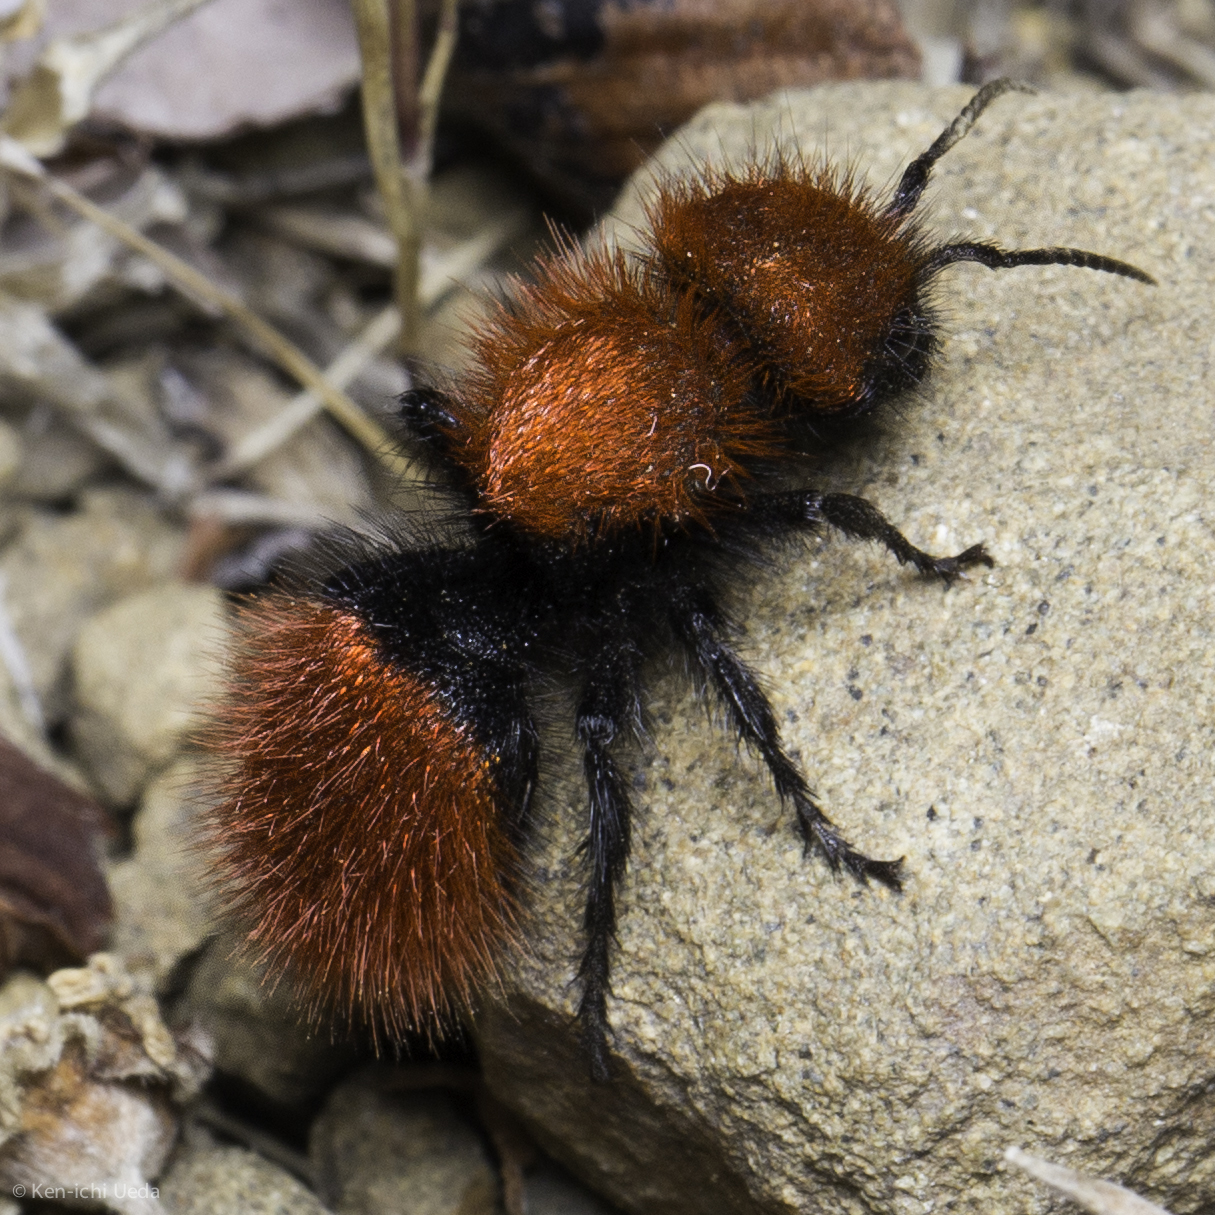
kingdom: Animalia
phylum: Arthropoda
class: Insecta
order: Hymenoptera
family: Mutillidae
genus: Dasymutilla
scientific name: Dasymutilla
